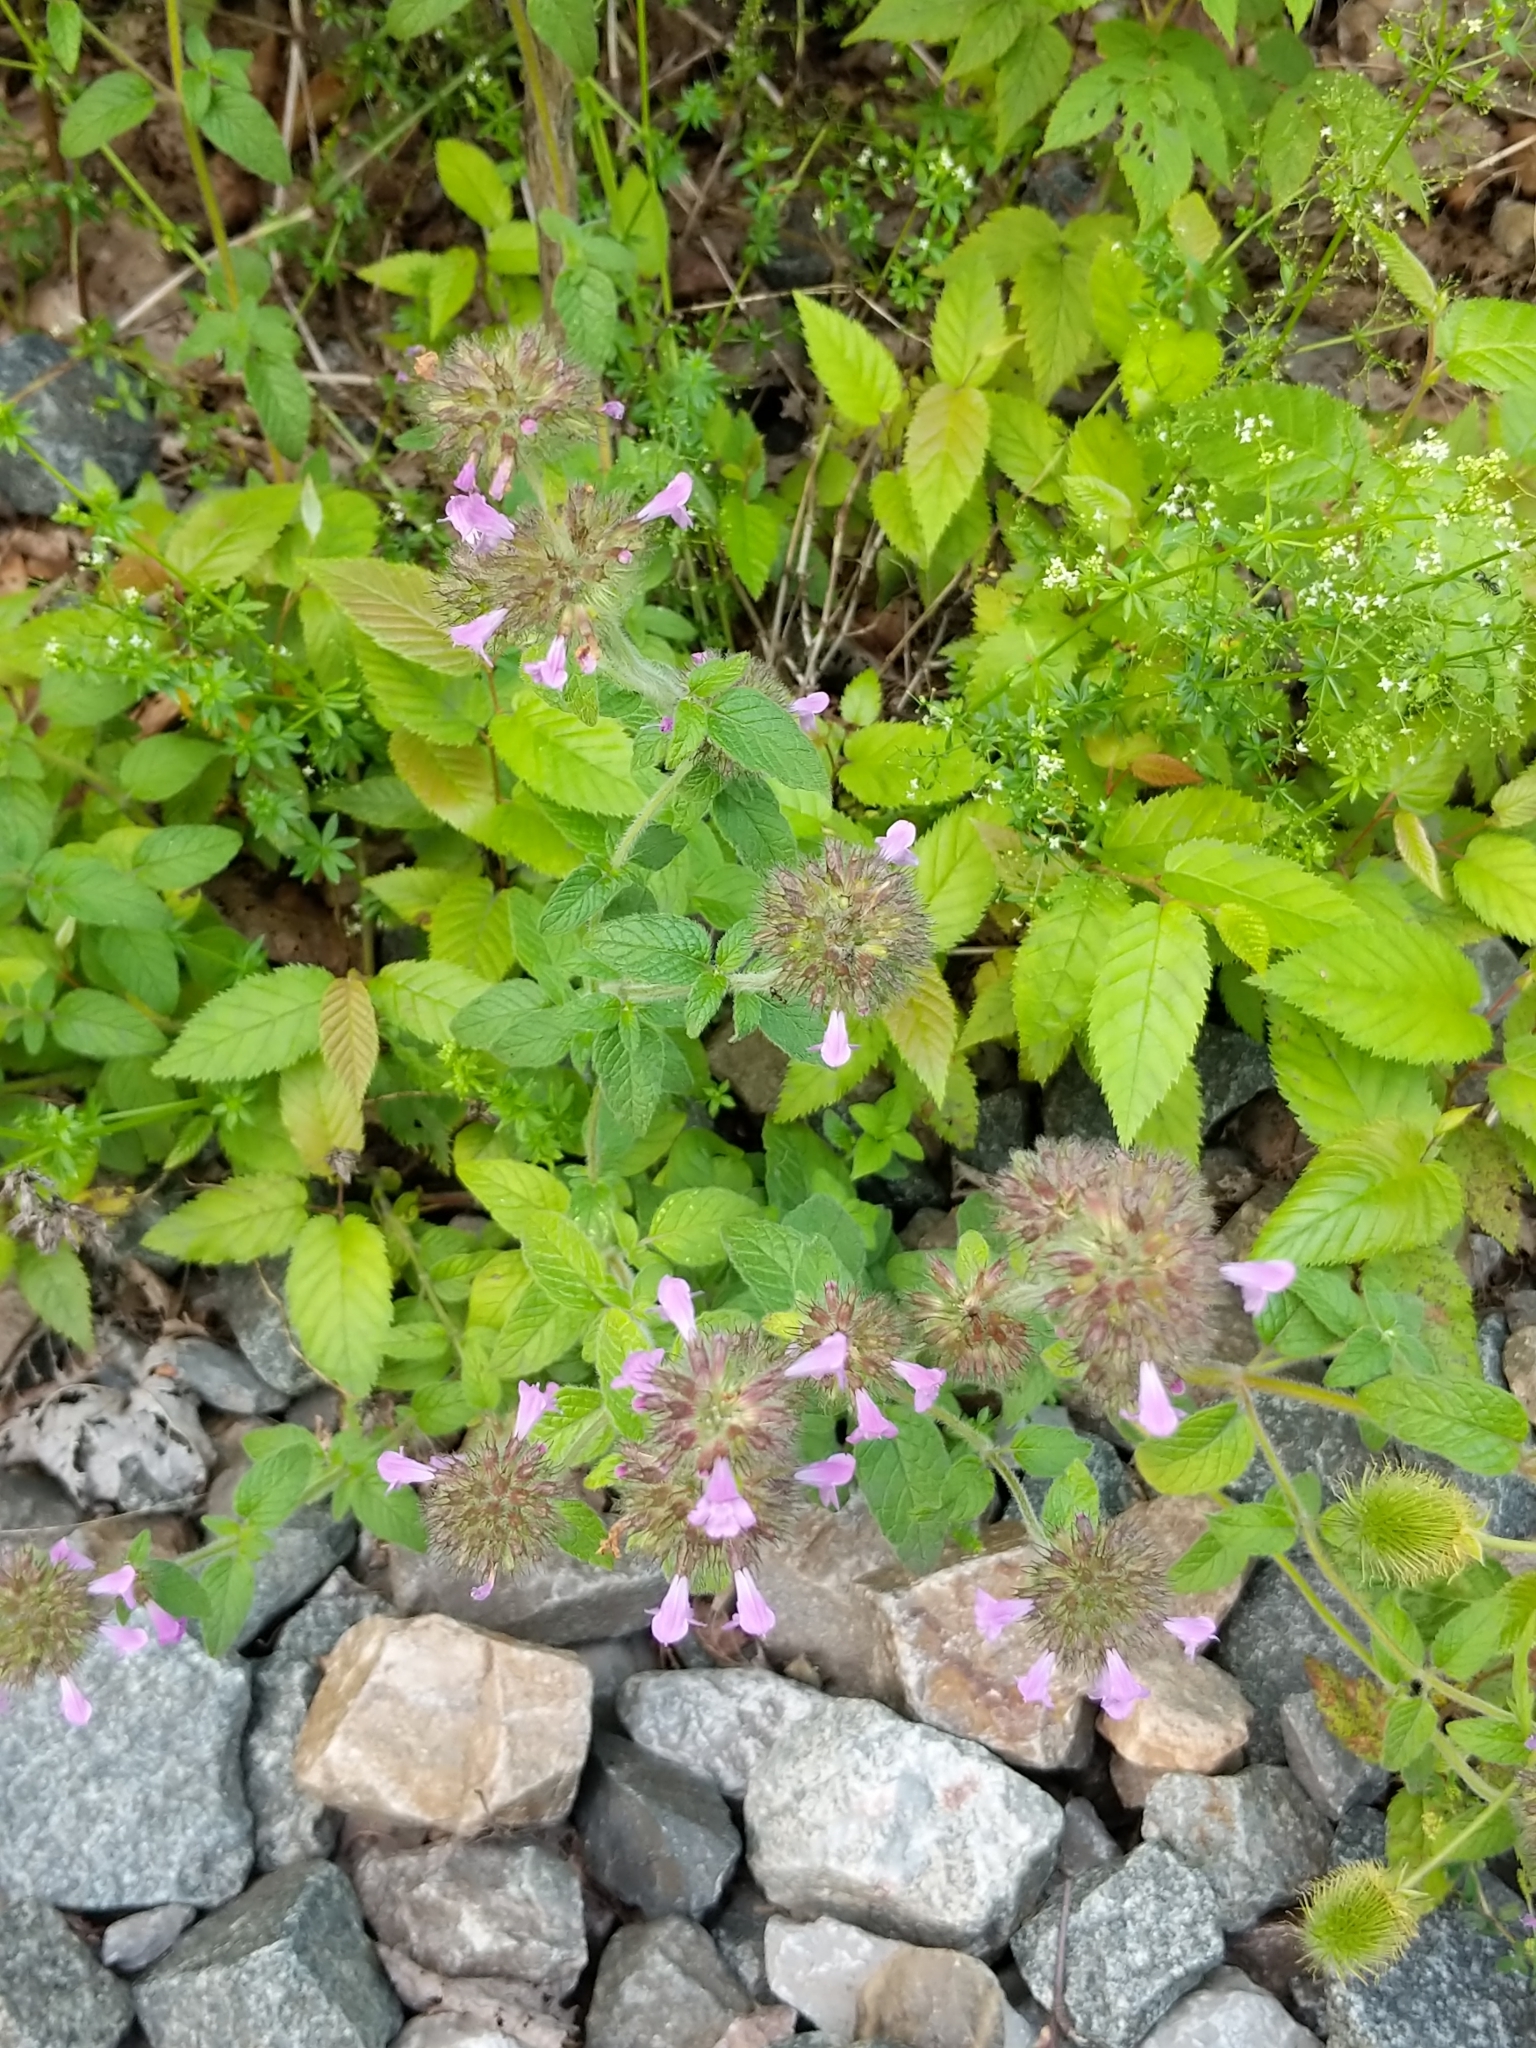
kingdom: Plantae
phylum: Tracheophyta
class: Magnoliopsida
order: Lamiales
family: Lamiaceae
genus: Clinopodium
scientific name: Clinopodium vulgare
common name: Wild basil
